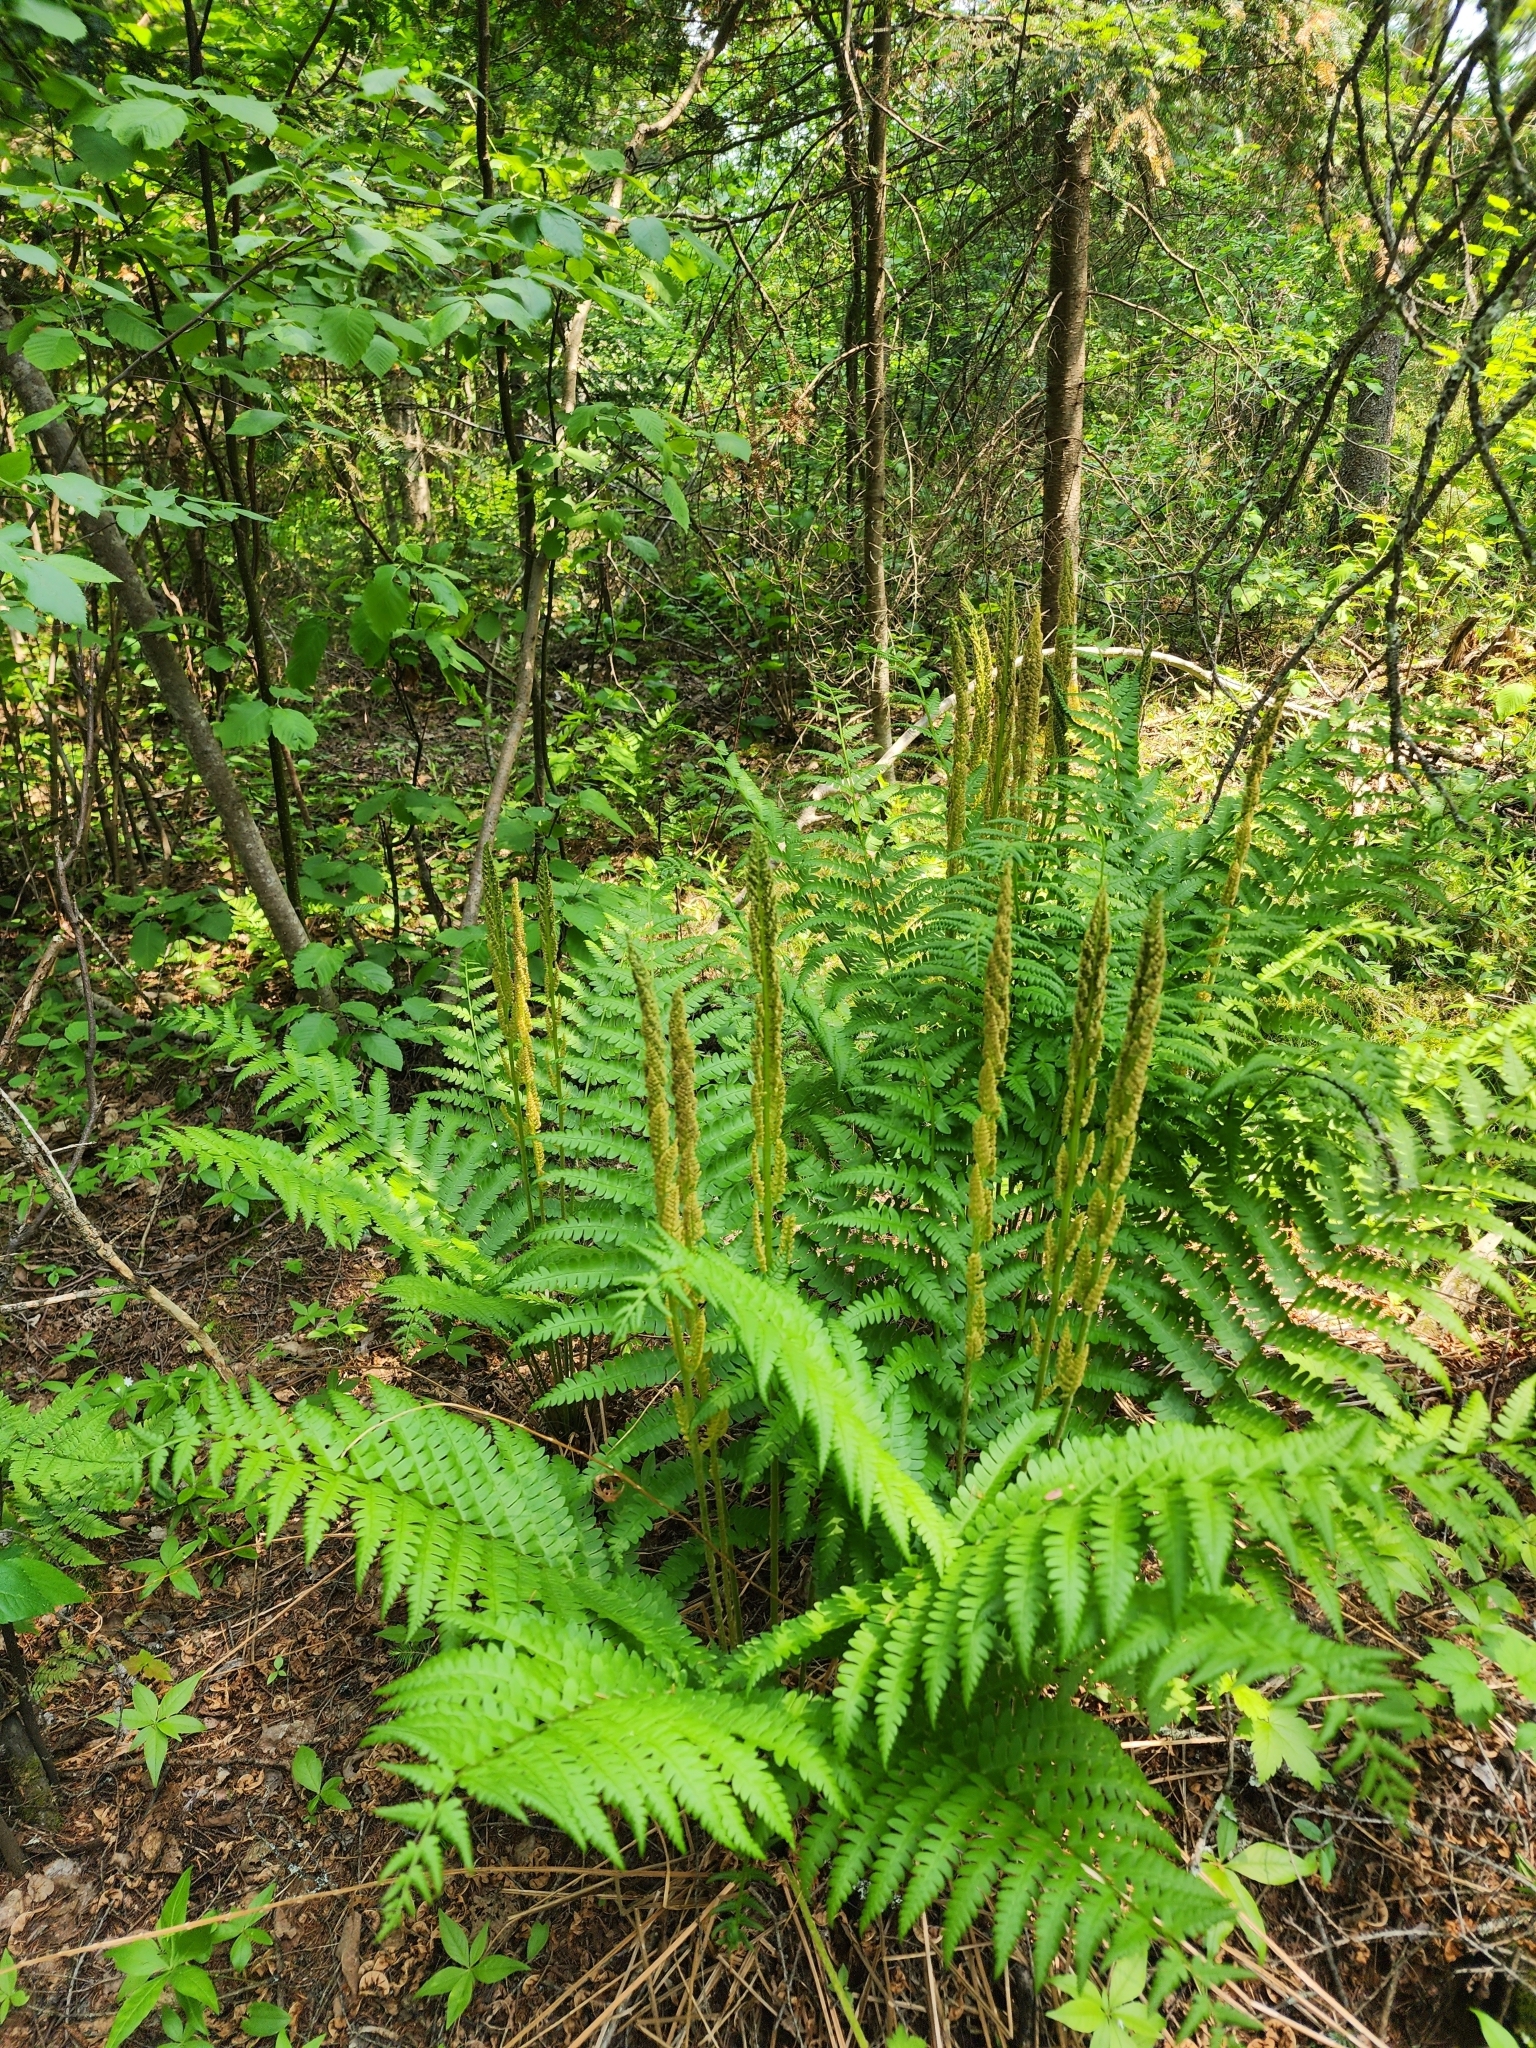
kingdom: Plantae
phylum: Tracheophyta
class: Polypodiopsida
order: Osmundales
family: Osmundaceae
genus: Osmundastrum
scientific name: Osmundastrum cinnamomeum
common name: Cinnamon fern
